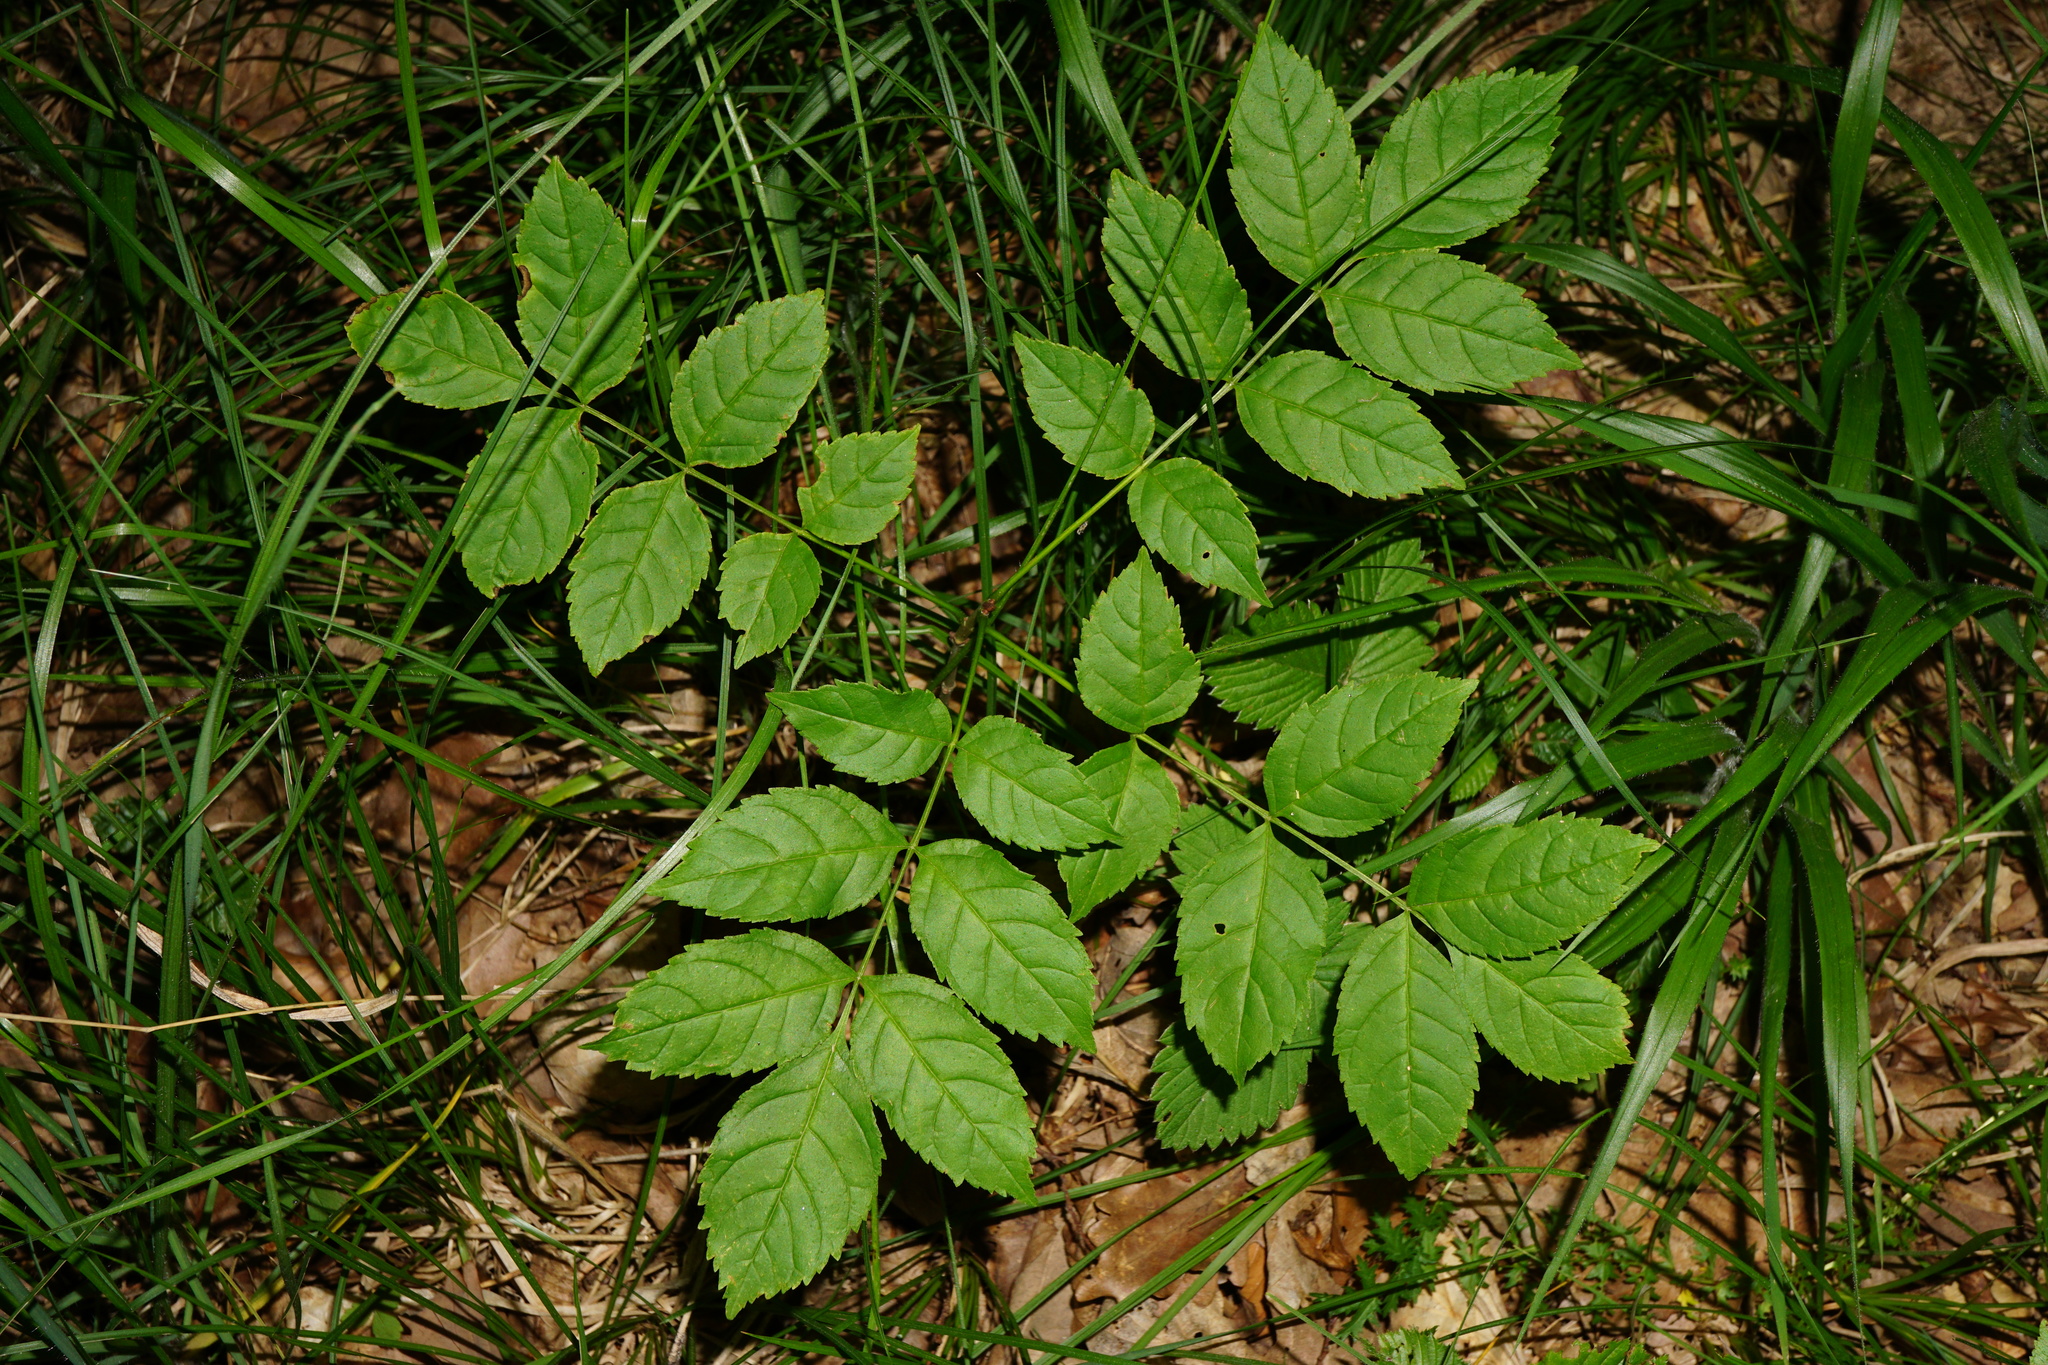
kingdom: Plantae
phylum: Tracheophyta
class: Magnoliopsida
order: Lamiales
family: Oleaceae
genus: Fraxinus
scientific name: Fraxinus excelsior
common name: European ash
